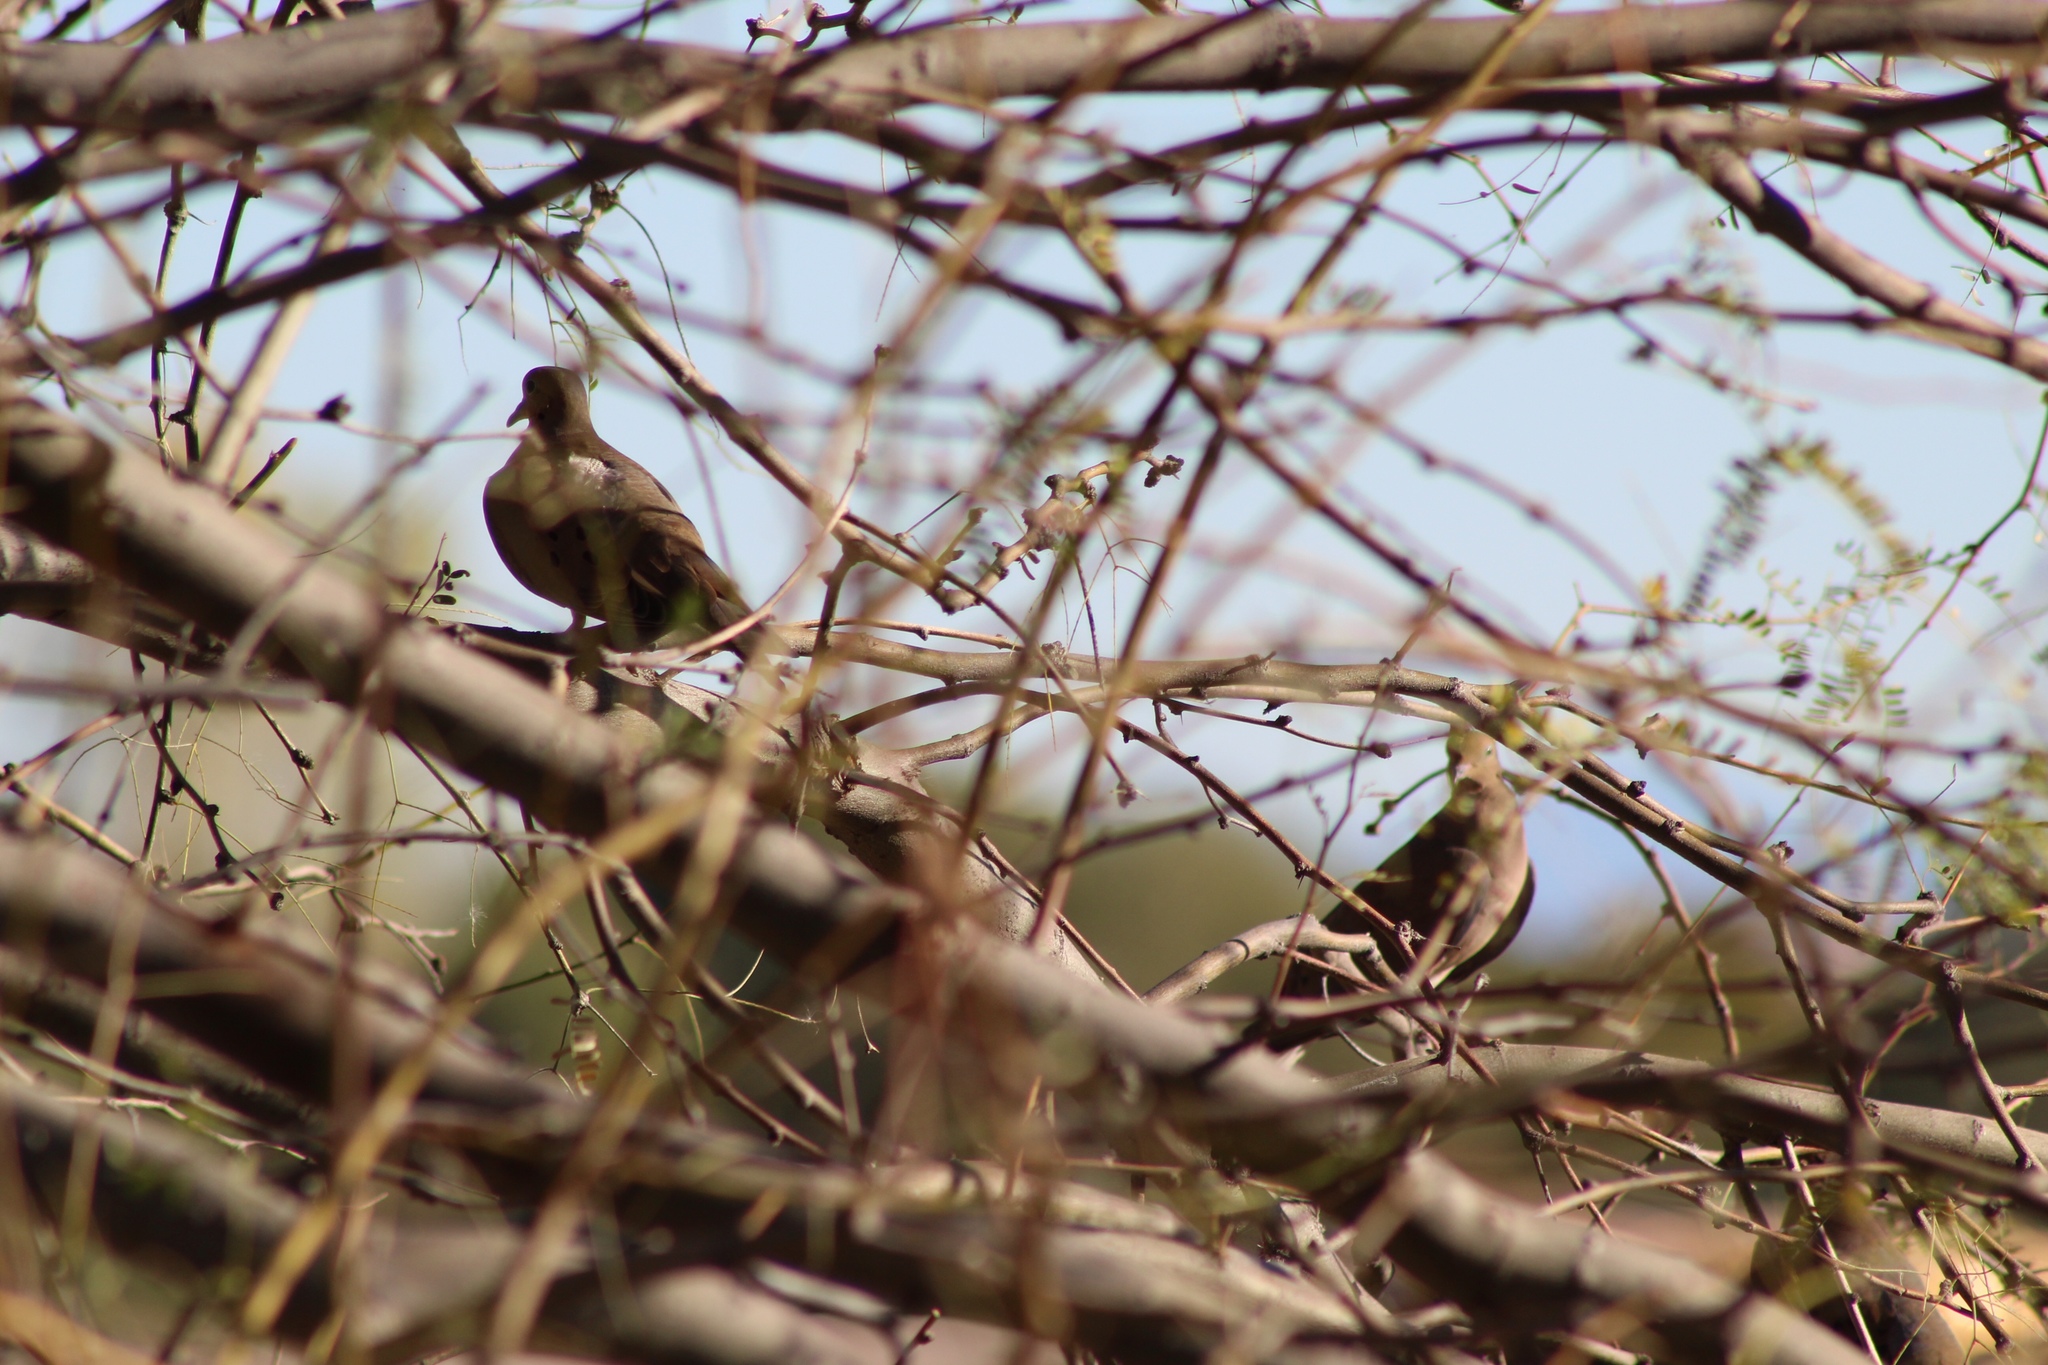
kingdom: Animalia
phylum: Chordata
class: Aves
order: Columbiformes
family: Columbidae
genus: Zenaida
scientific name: Zenaida macroura
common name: Mourning dove
